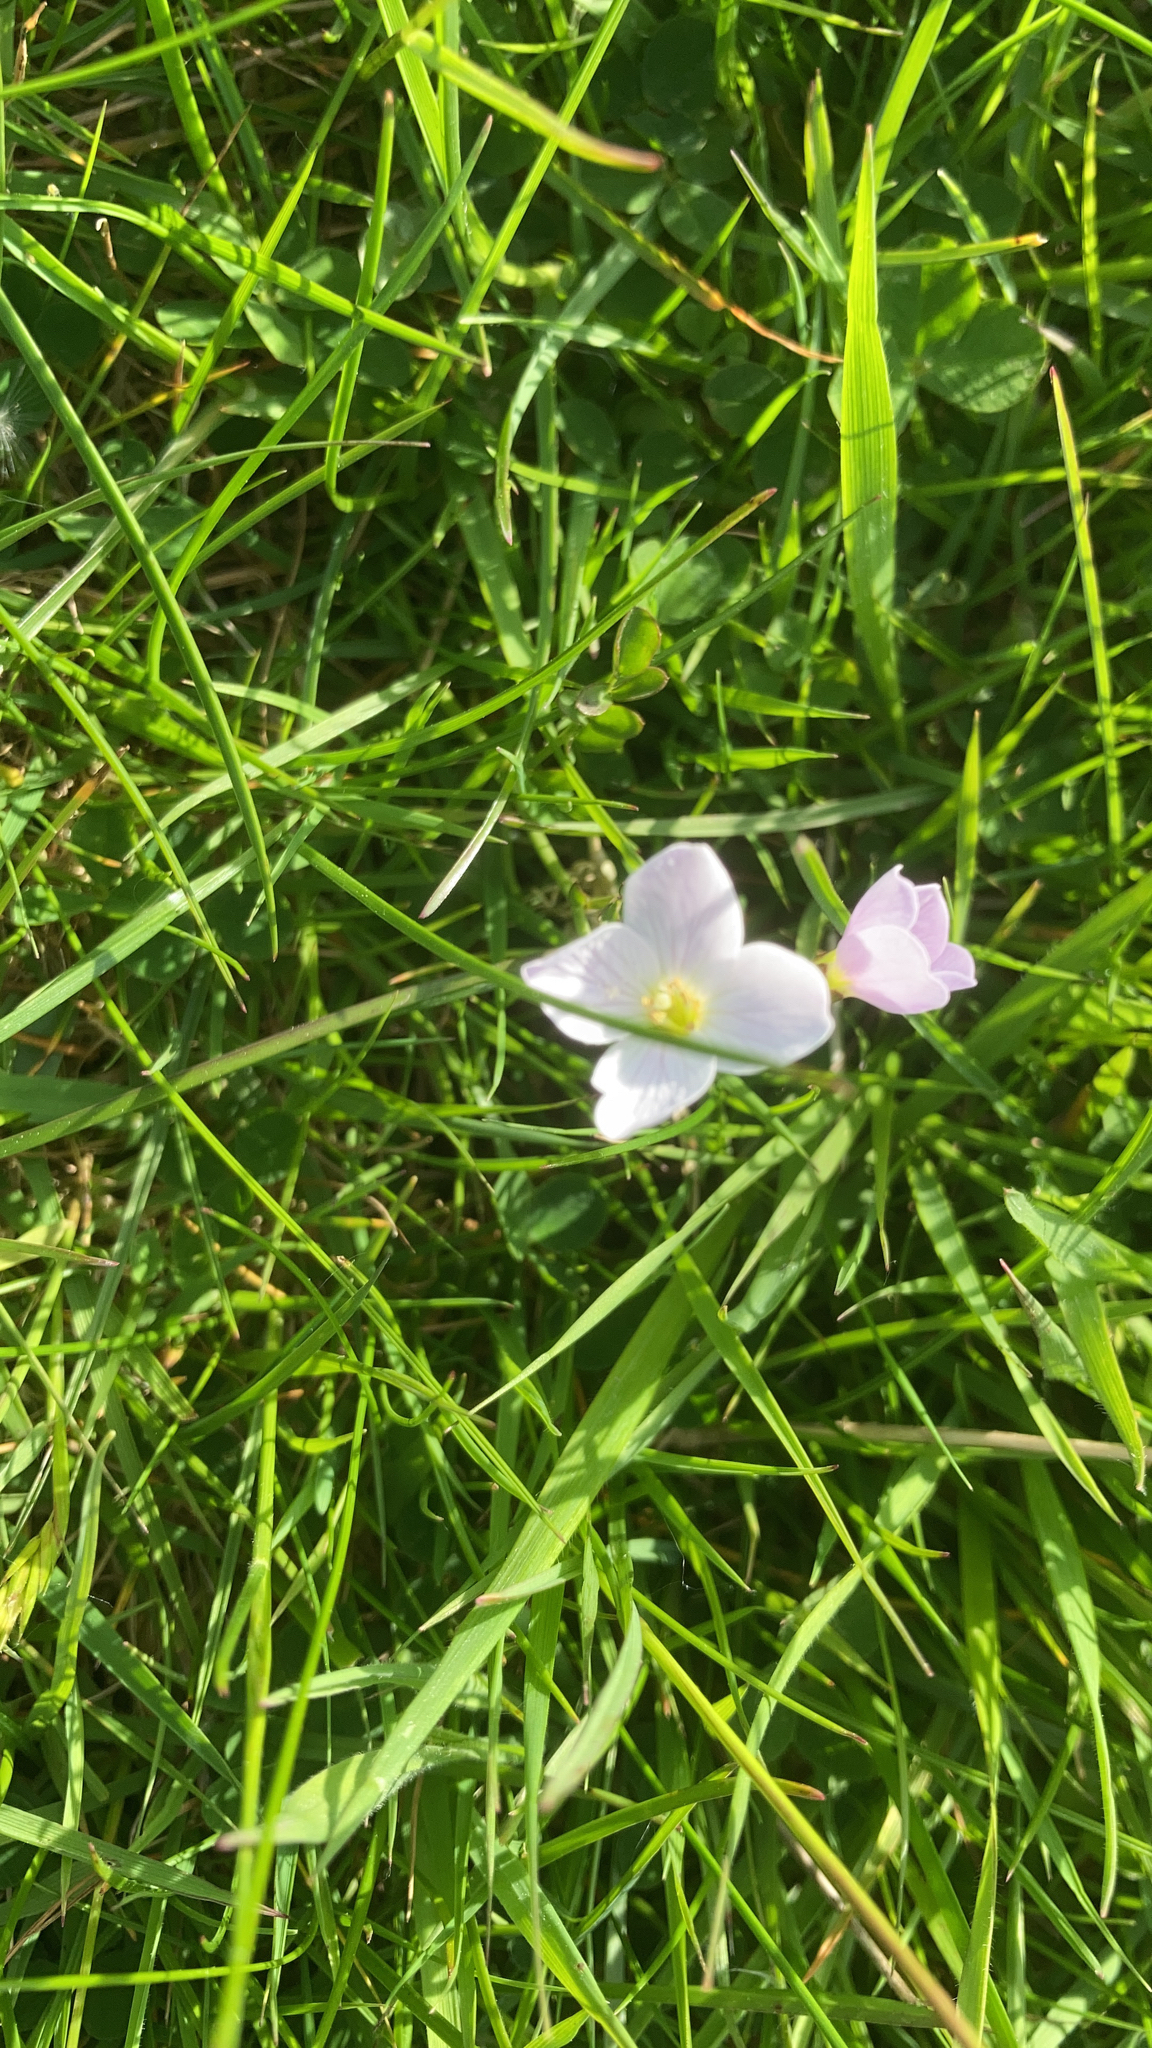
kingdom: Plantae
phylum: Tracheophyta
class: Magnoliopsida
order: Brassicales
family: Brassicaceae
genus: Cardamine
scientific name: Cardamine pratensis
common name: Cuckoo flower
